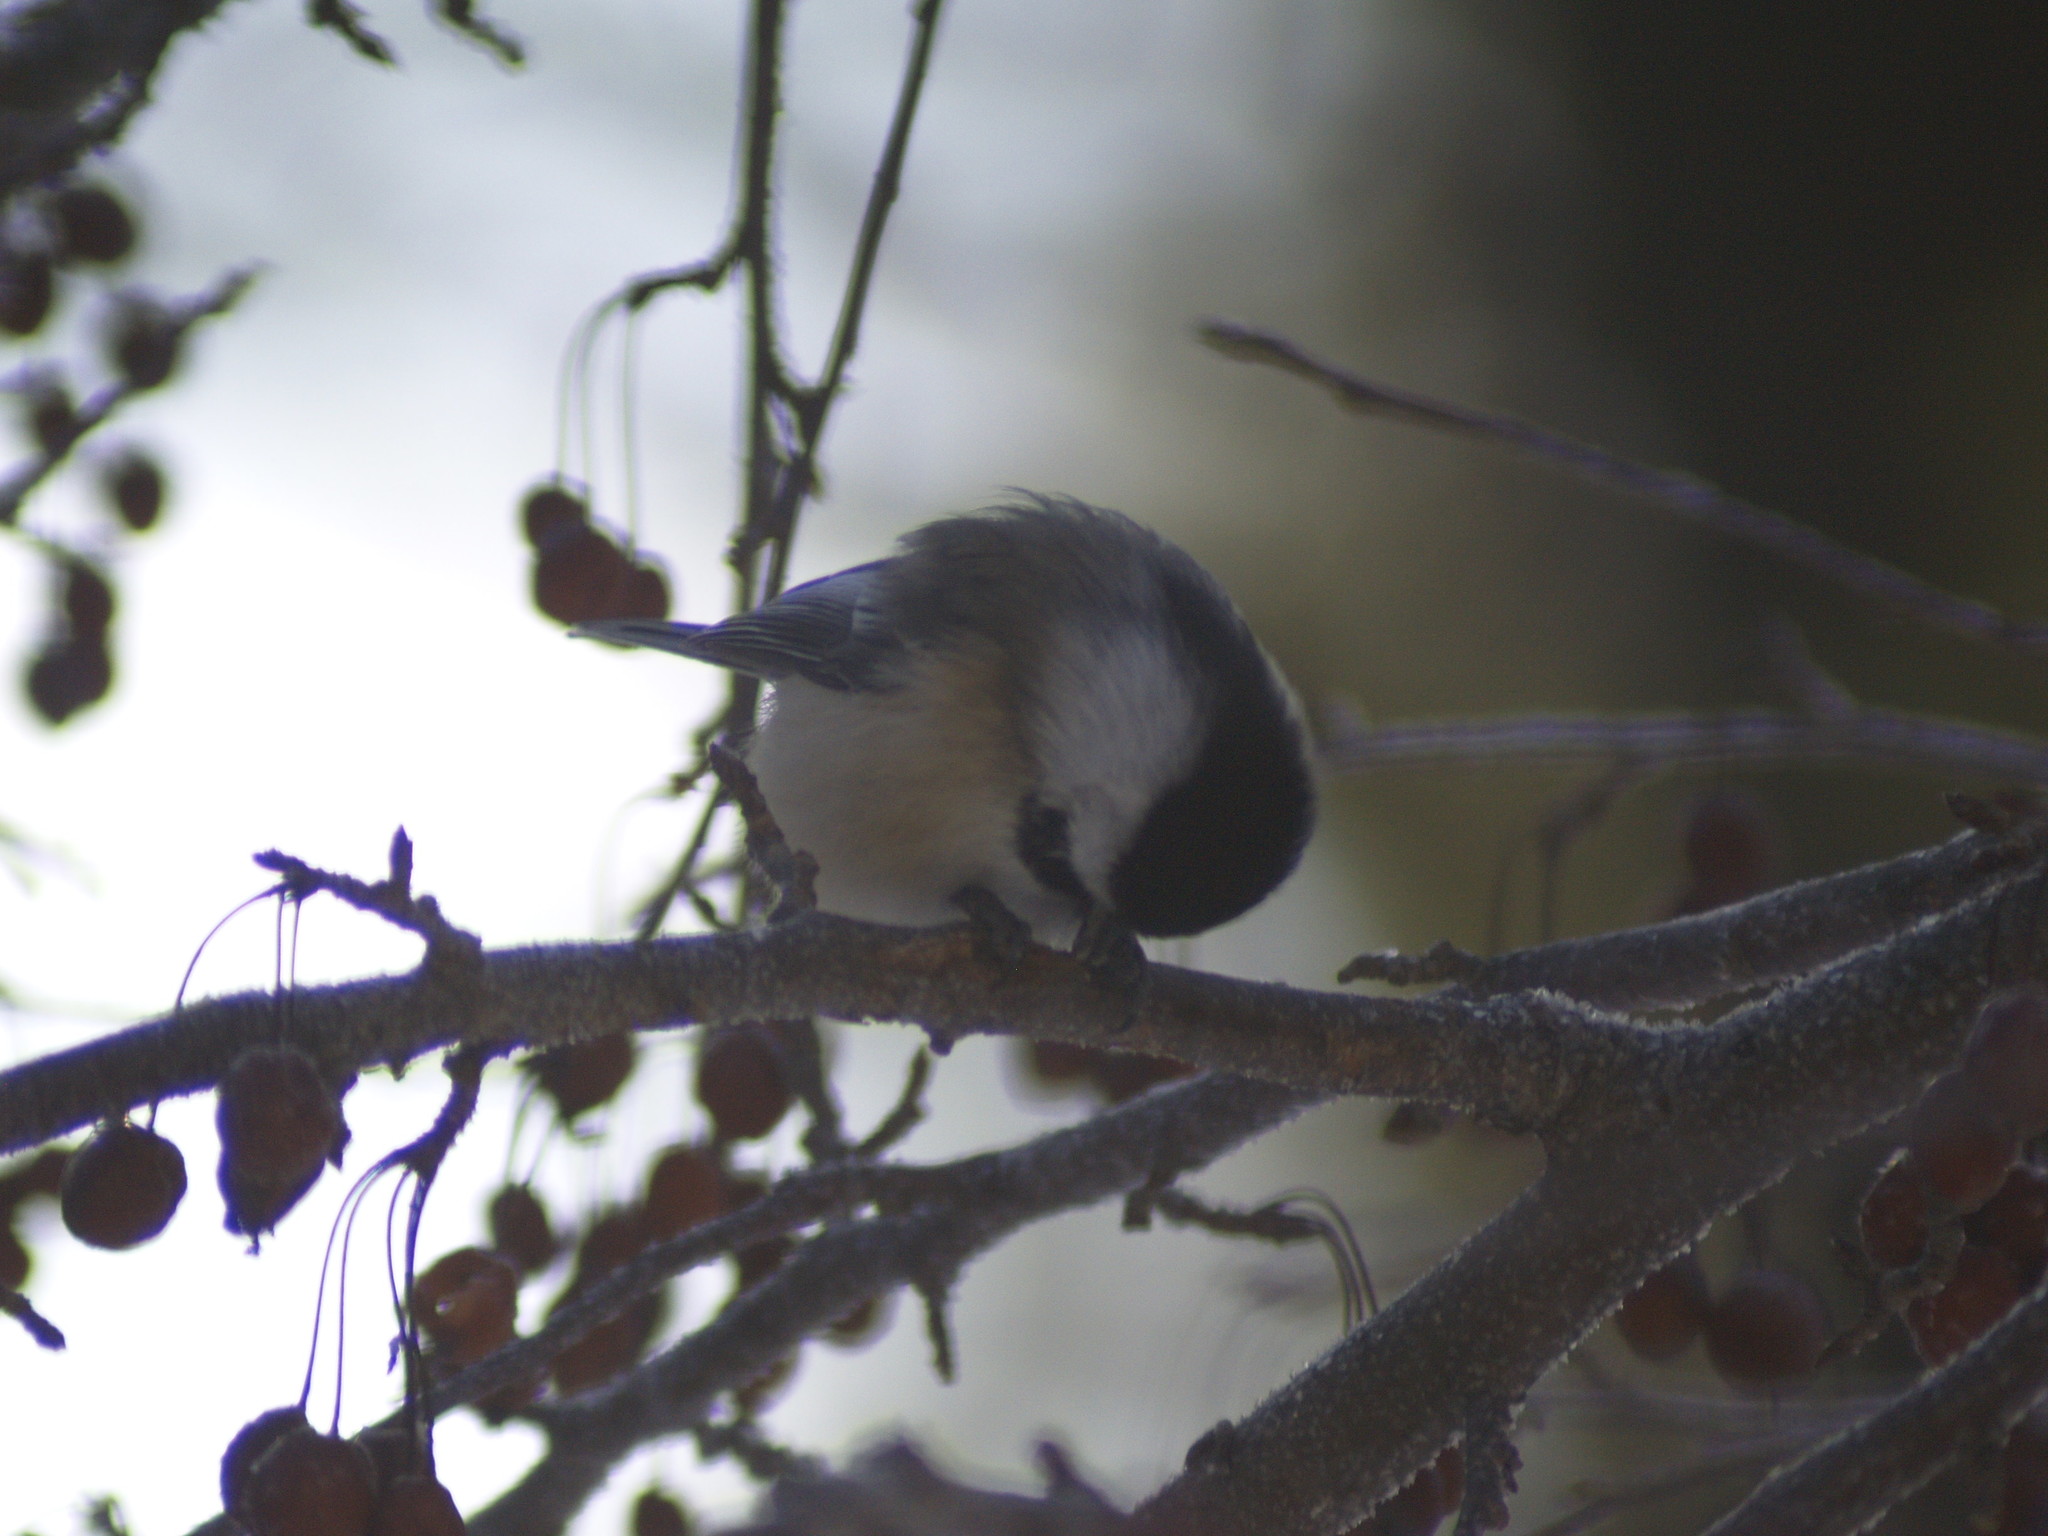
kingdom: Animalia
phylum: Chordata
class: Aves
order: Passeriformes
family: Paridae
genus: Poecile
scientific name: Poecile atricapillus
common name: Black-capped chickadee
